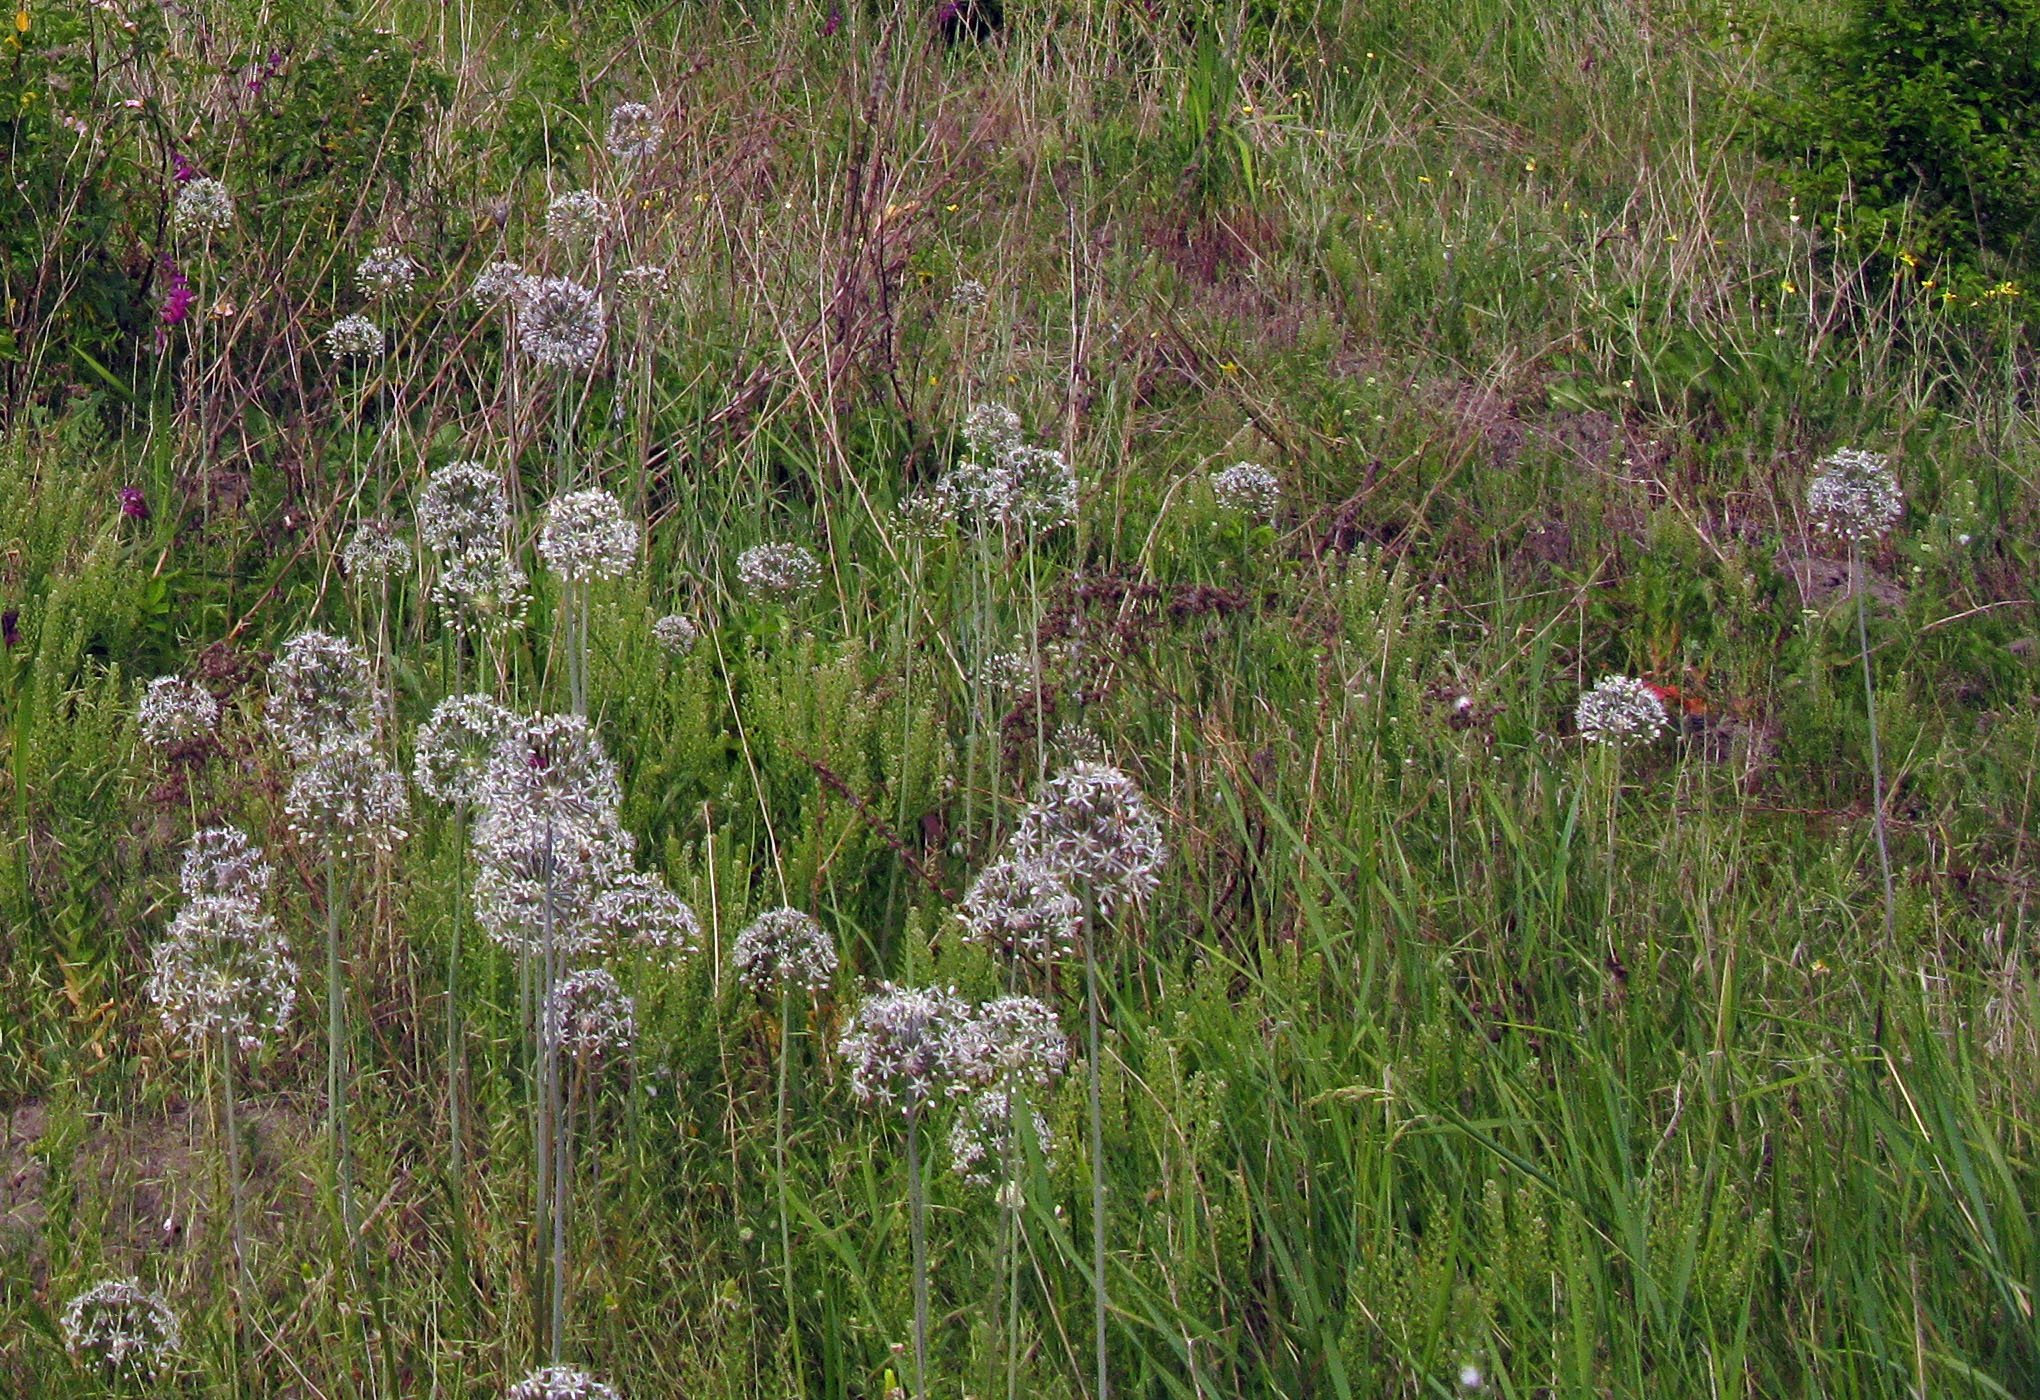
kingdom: Plantae
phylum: Tracheophyta
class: Liliopsida
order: Asparagales
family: Amaryllidaceae
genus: Allium
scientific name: Allium decipiens
